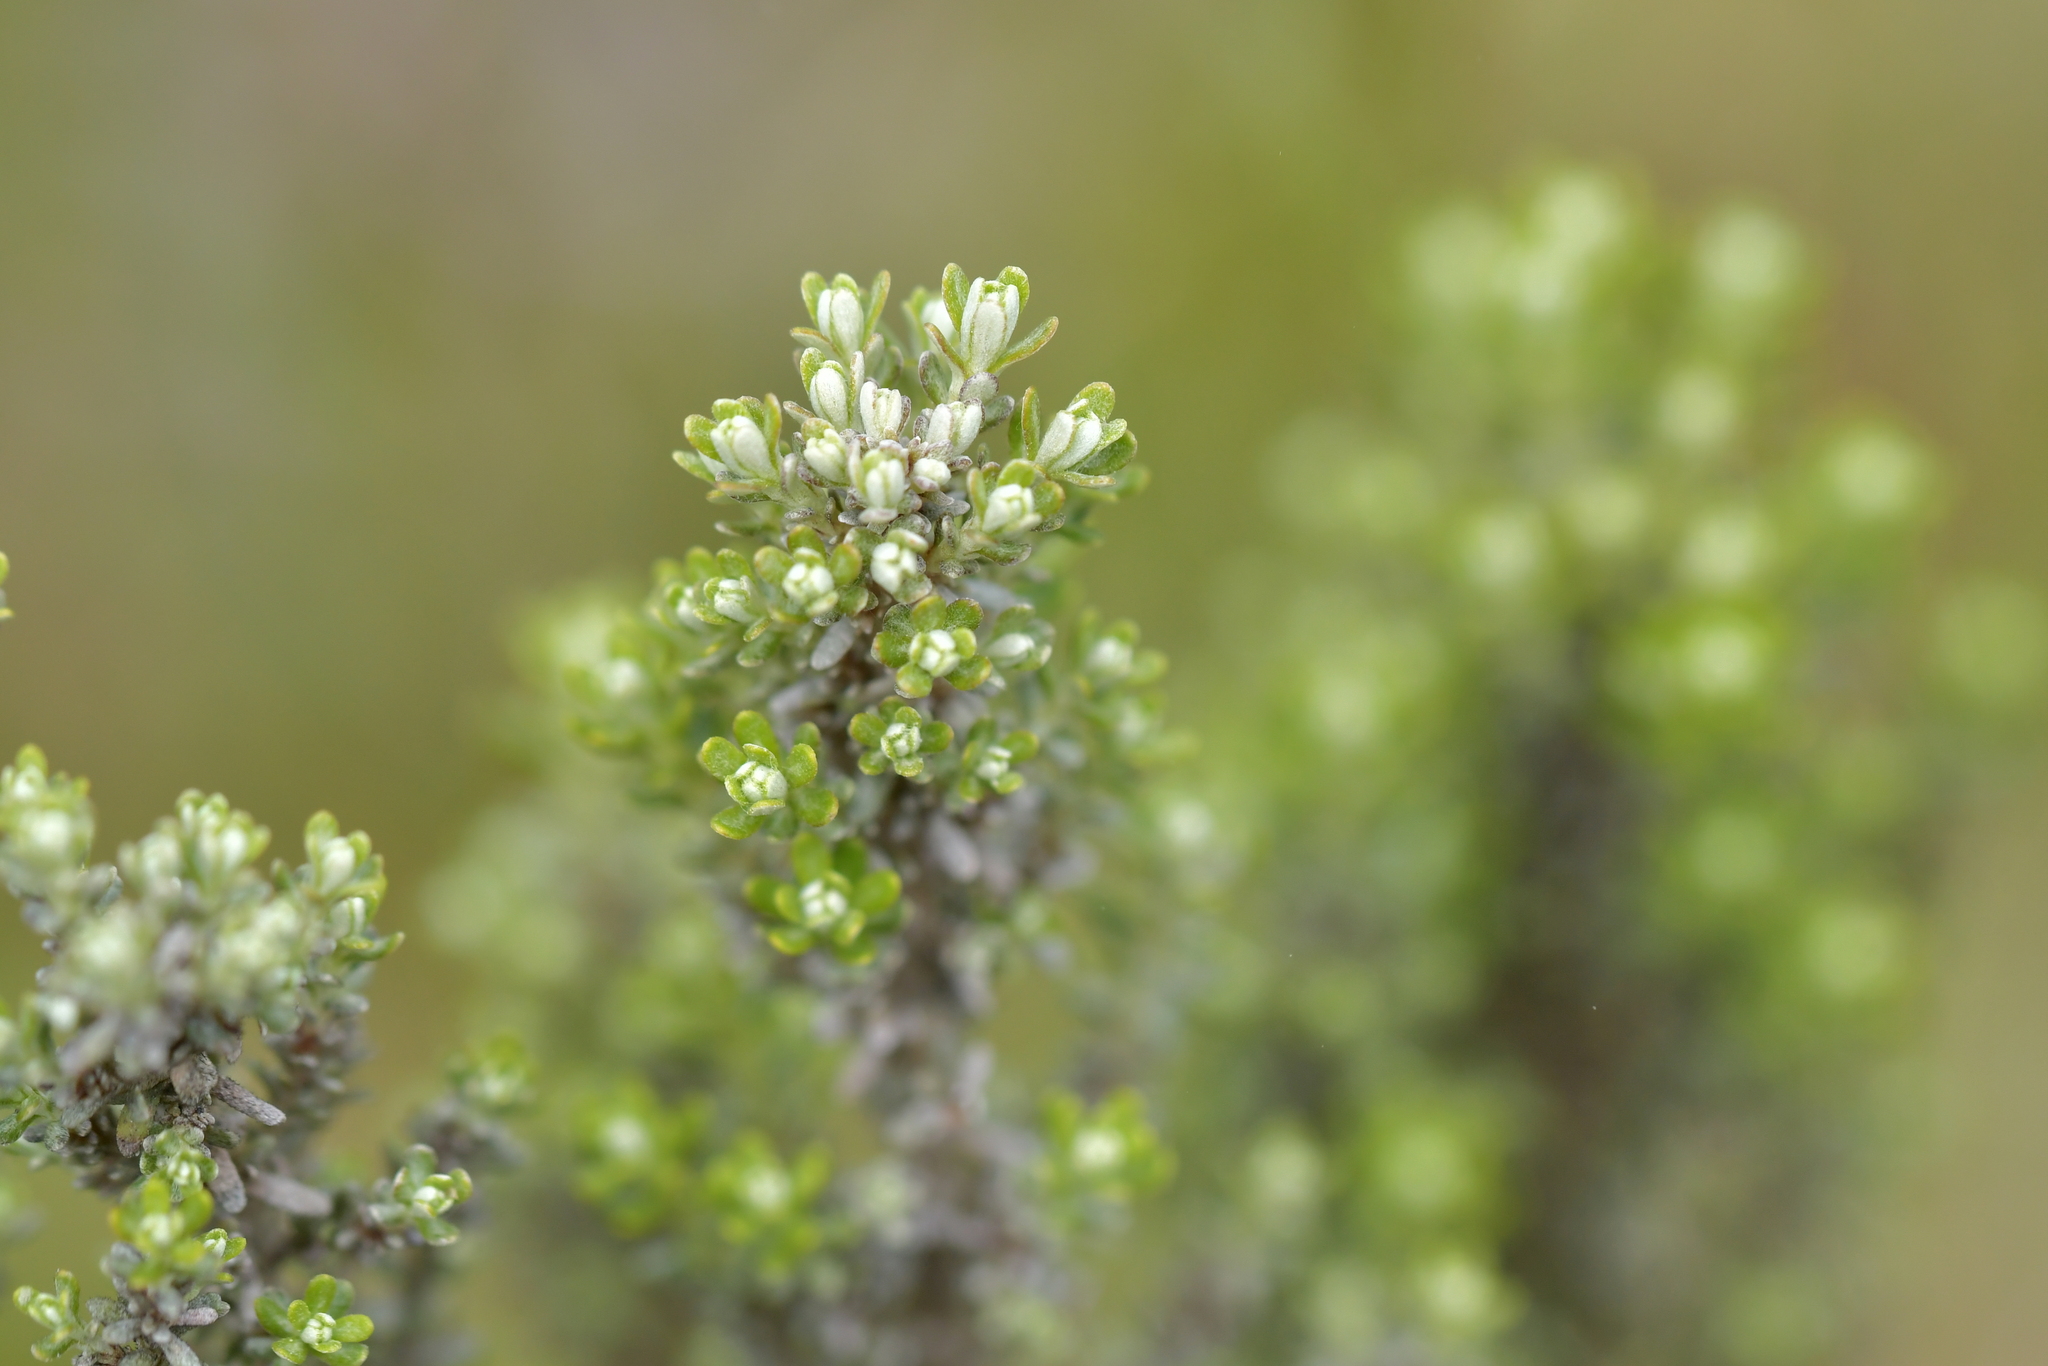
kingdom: Plantae
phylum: Tracheophyta
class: Magnoliopsida
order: Asterales
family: Asteraceae
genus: Ozothamnus
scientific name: Ozothamnus leptophyllus
